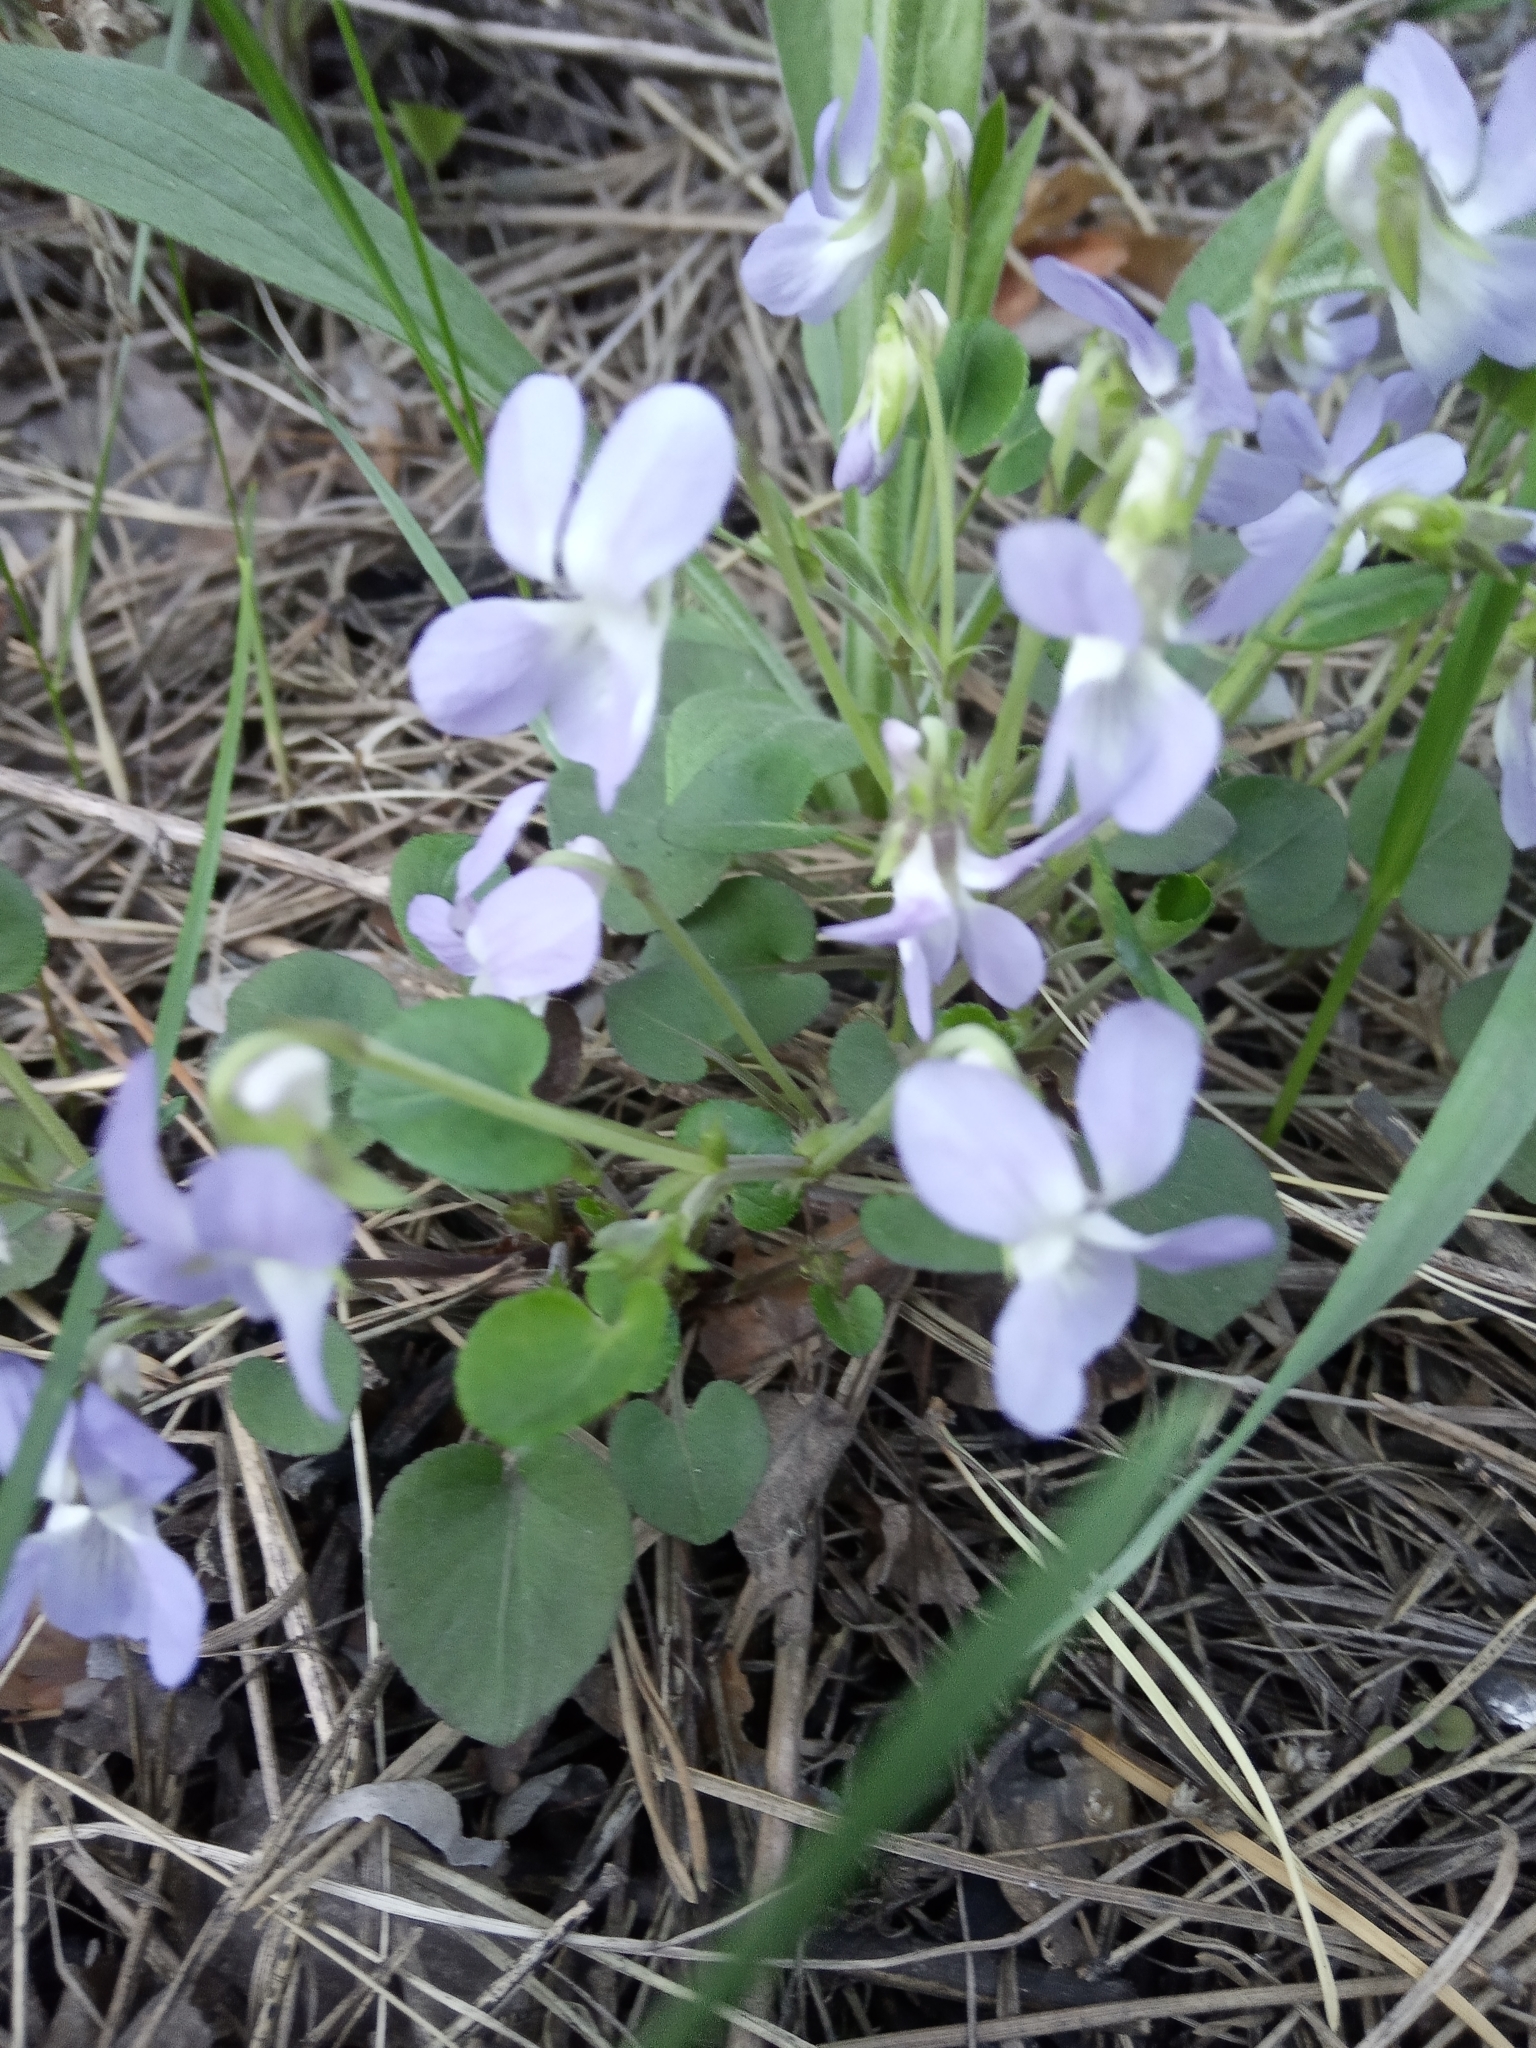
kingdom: Plantae
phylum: Tracheophyta
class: Magnoliopsida
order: Malpighiales
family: Violaceae
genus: Viola
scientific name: Viola rupestris
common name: Teesdale violet
